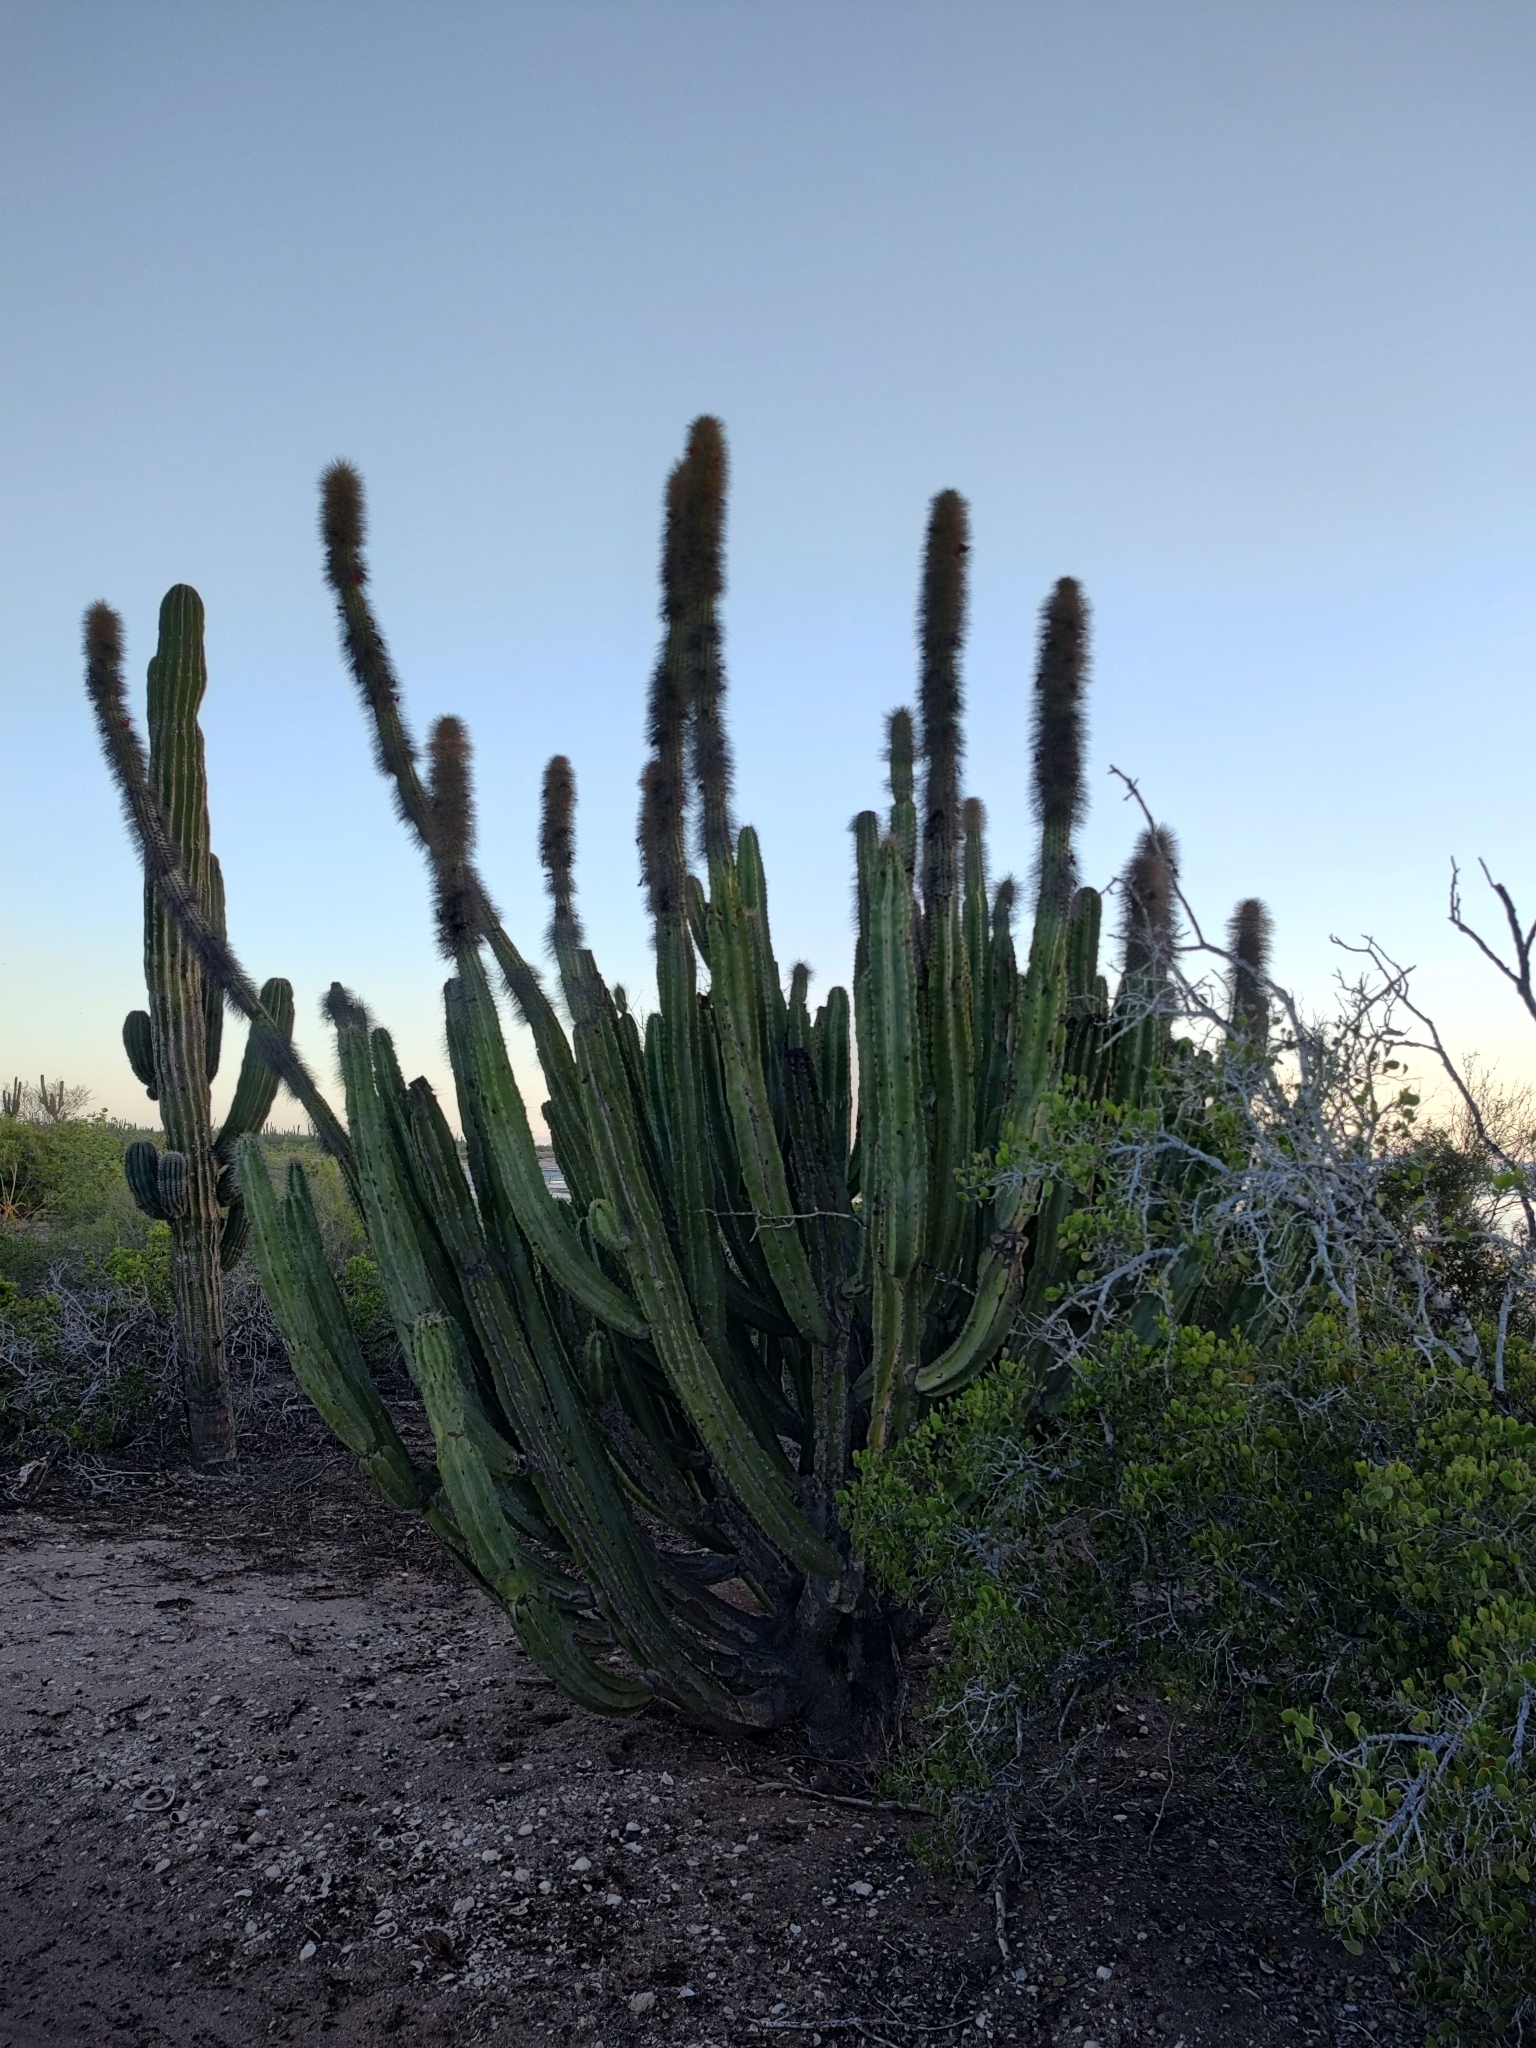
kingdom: Plantae
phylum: Tracheophyta
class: Magnoliopsida
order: Caryophyllales
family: Cactaceae
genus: Pachycereus
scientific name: Pachycereus schottii
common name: Senita cactus
